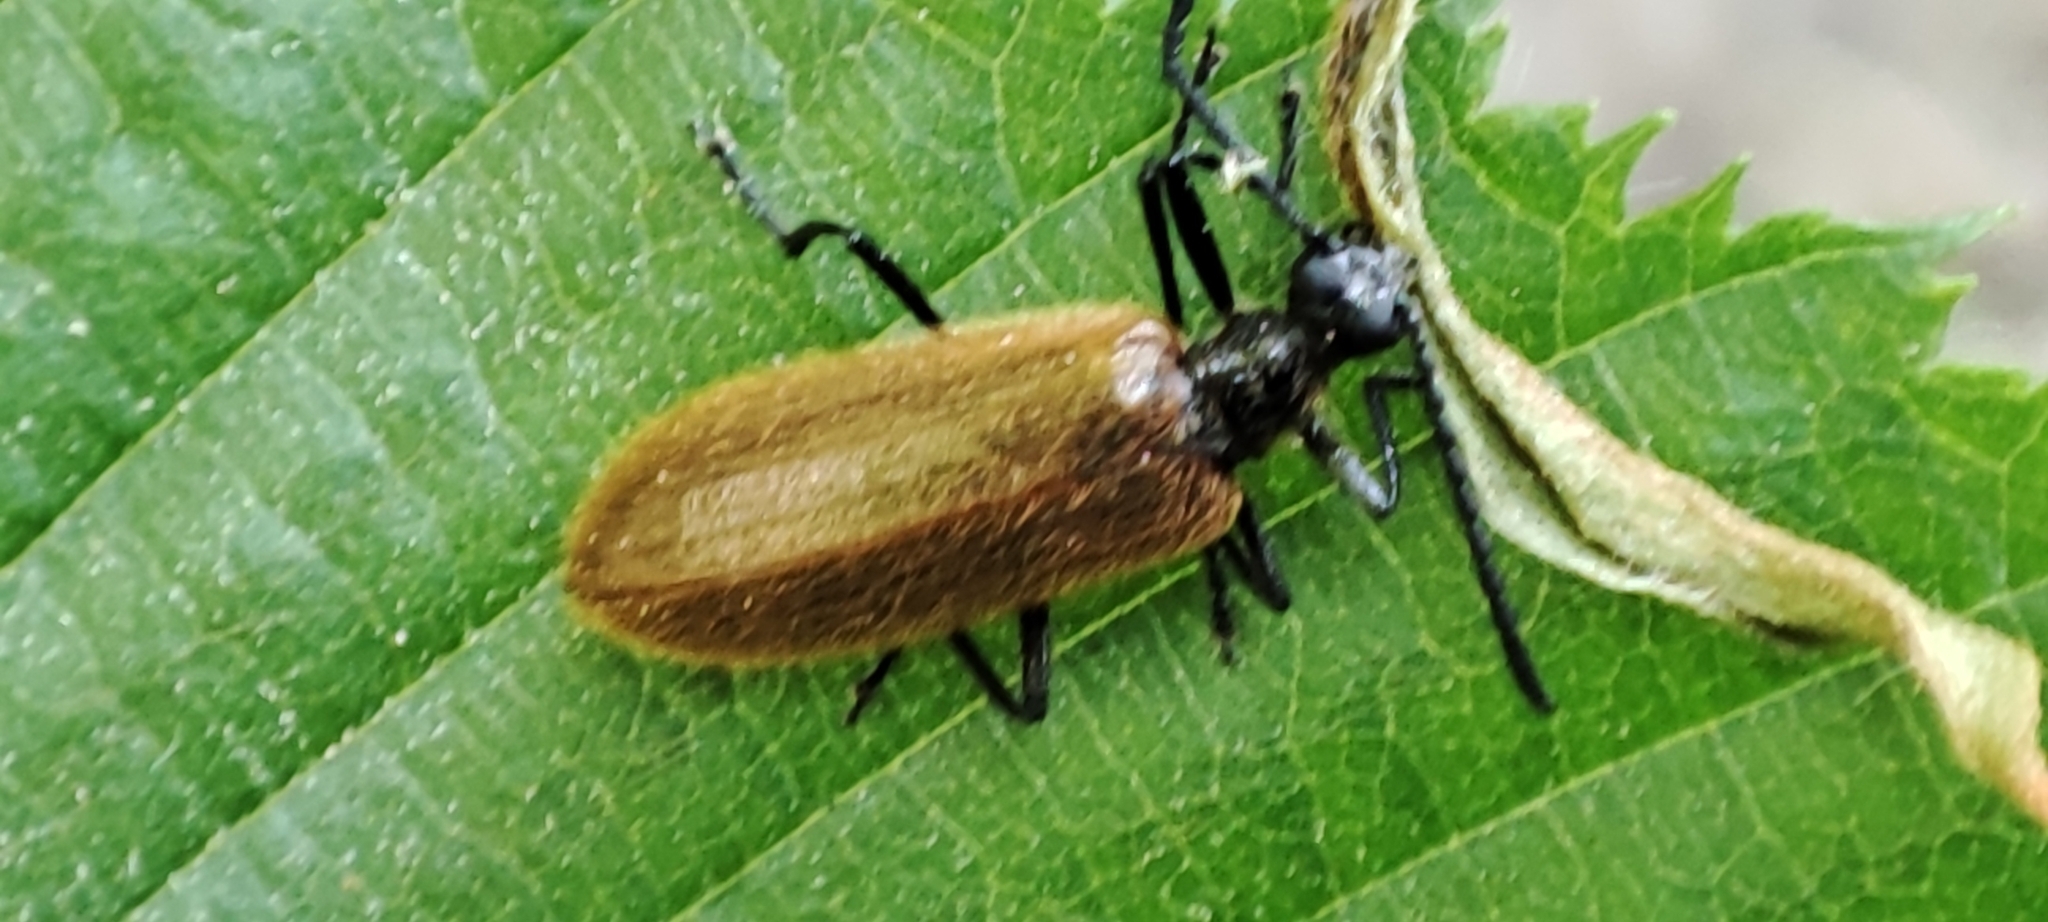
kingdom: Animalia
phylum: Arthropoda
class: Insecta
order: Coleoptera
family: Tenebrionidae
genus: Lagria
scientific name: Lagria hirta
